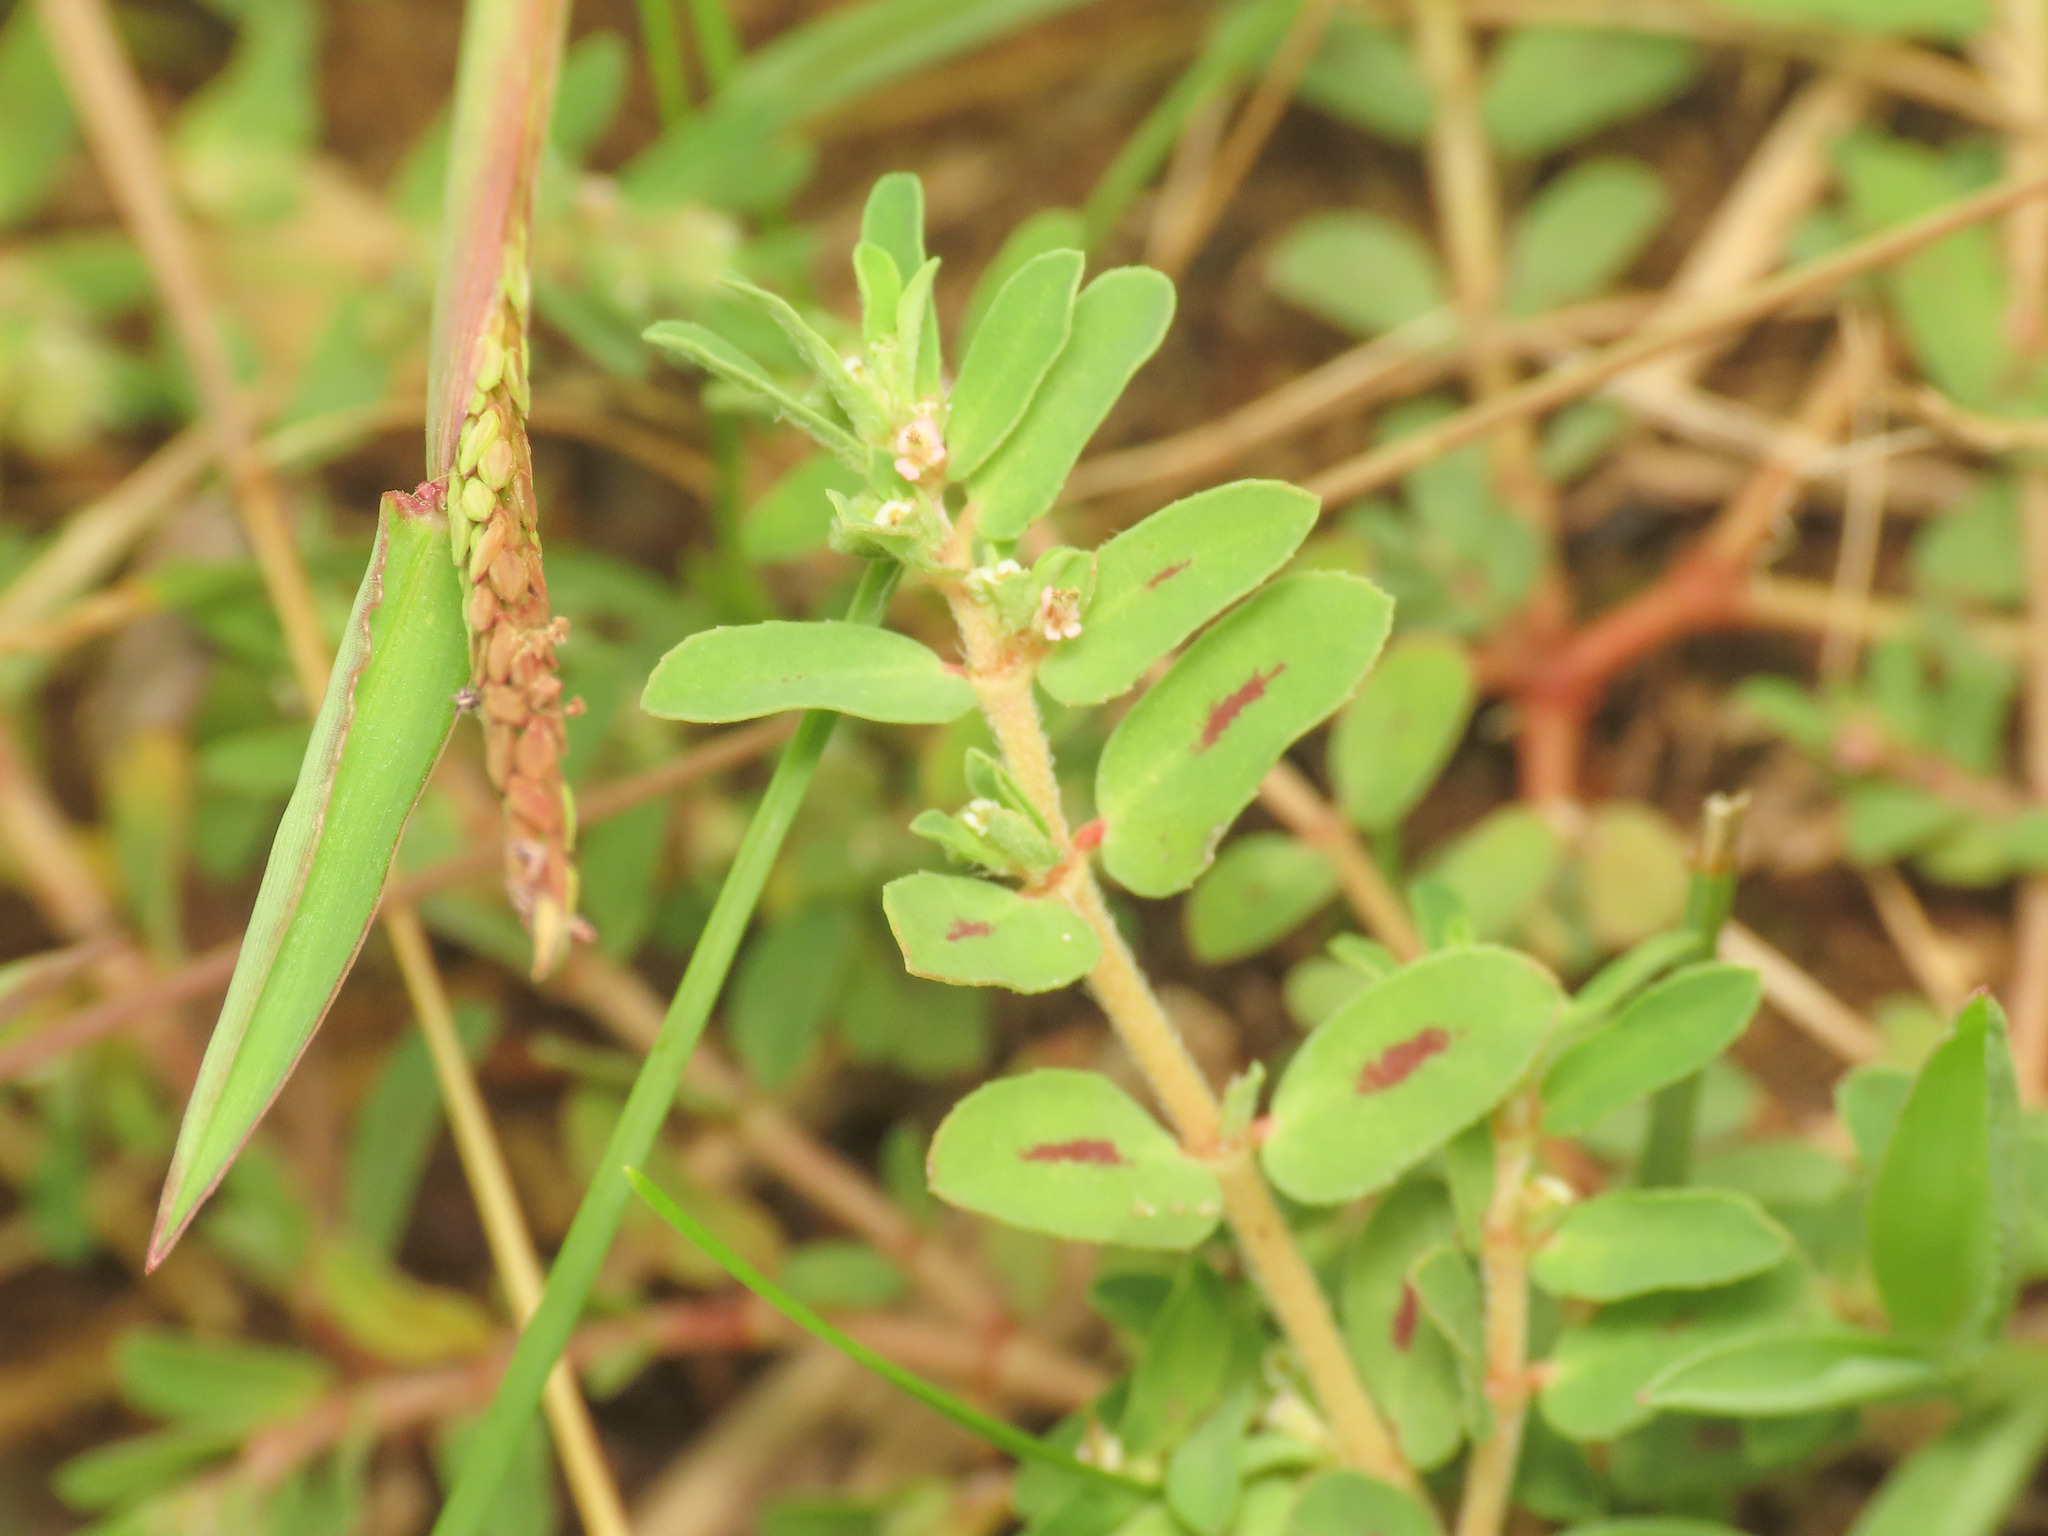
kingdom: Plantae
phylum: Tracheophyta
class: Magnoliopsida
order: Malpighiales
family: Euphorbiaceae
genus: Euphorbia
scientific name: Euphorbia maculata
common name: Spotted spurge
